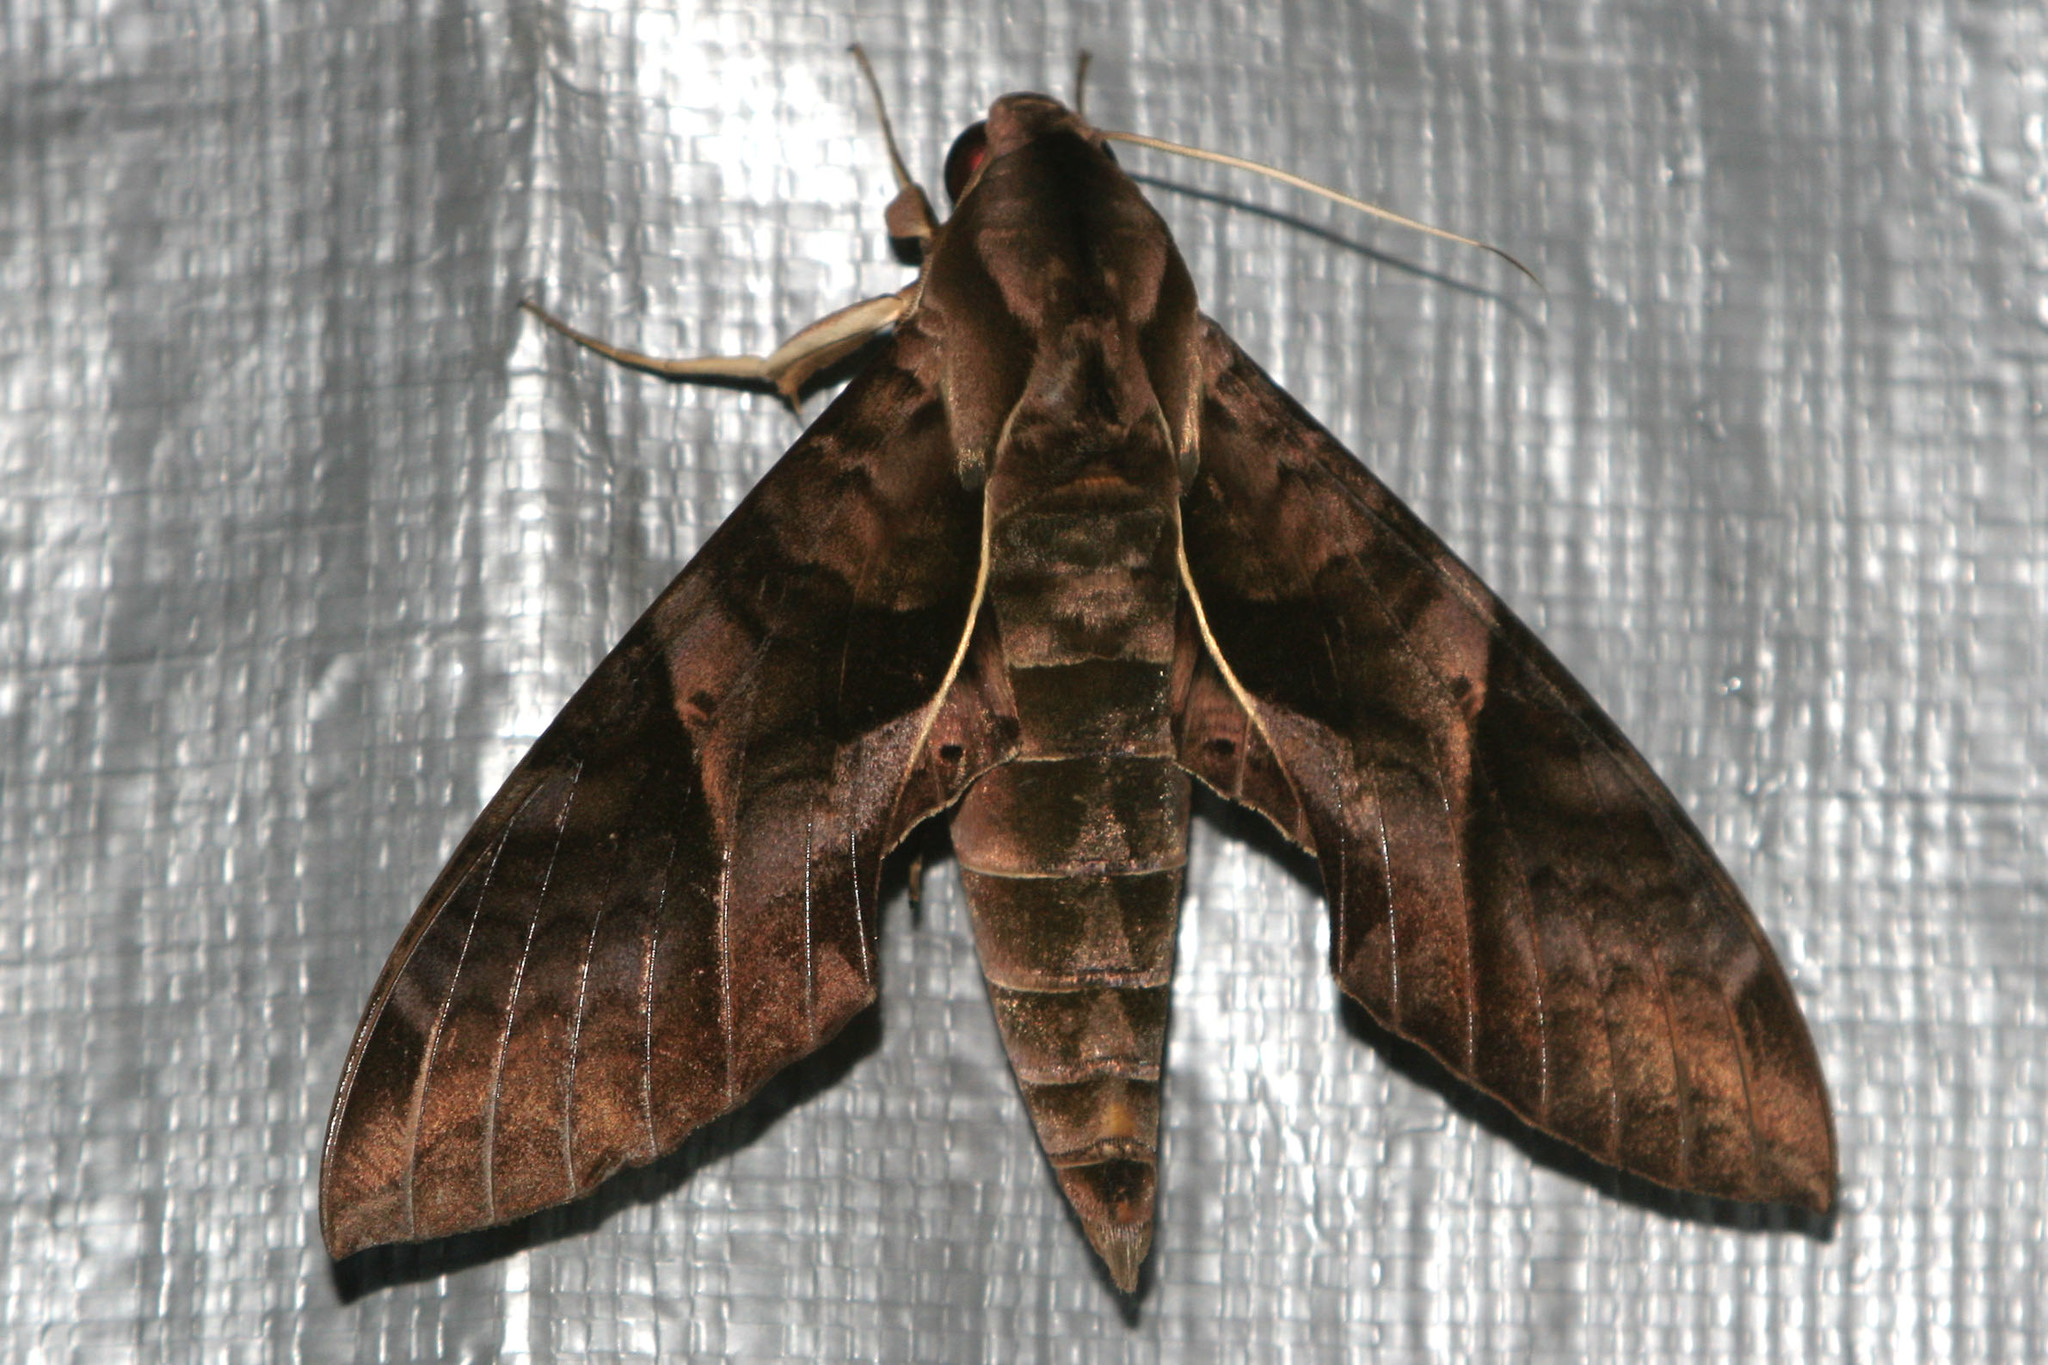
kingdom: Animalia
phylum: Arthropoda
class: Insecta
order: Lepidoptera
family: Sphingidae
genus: Eumorpha
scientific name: Eumorpha anchemolus
